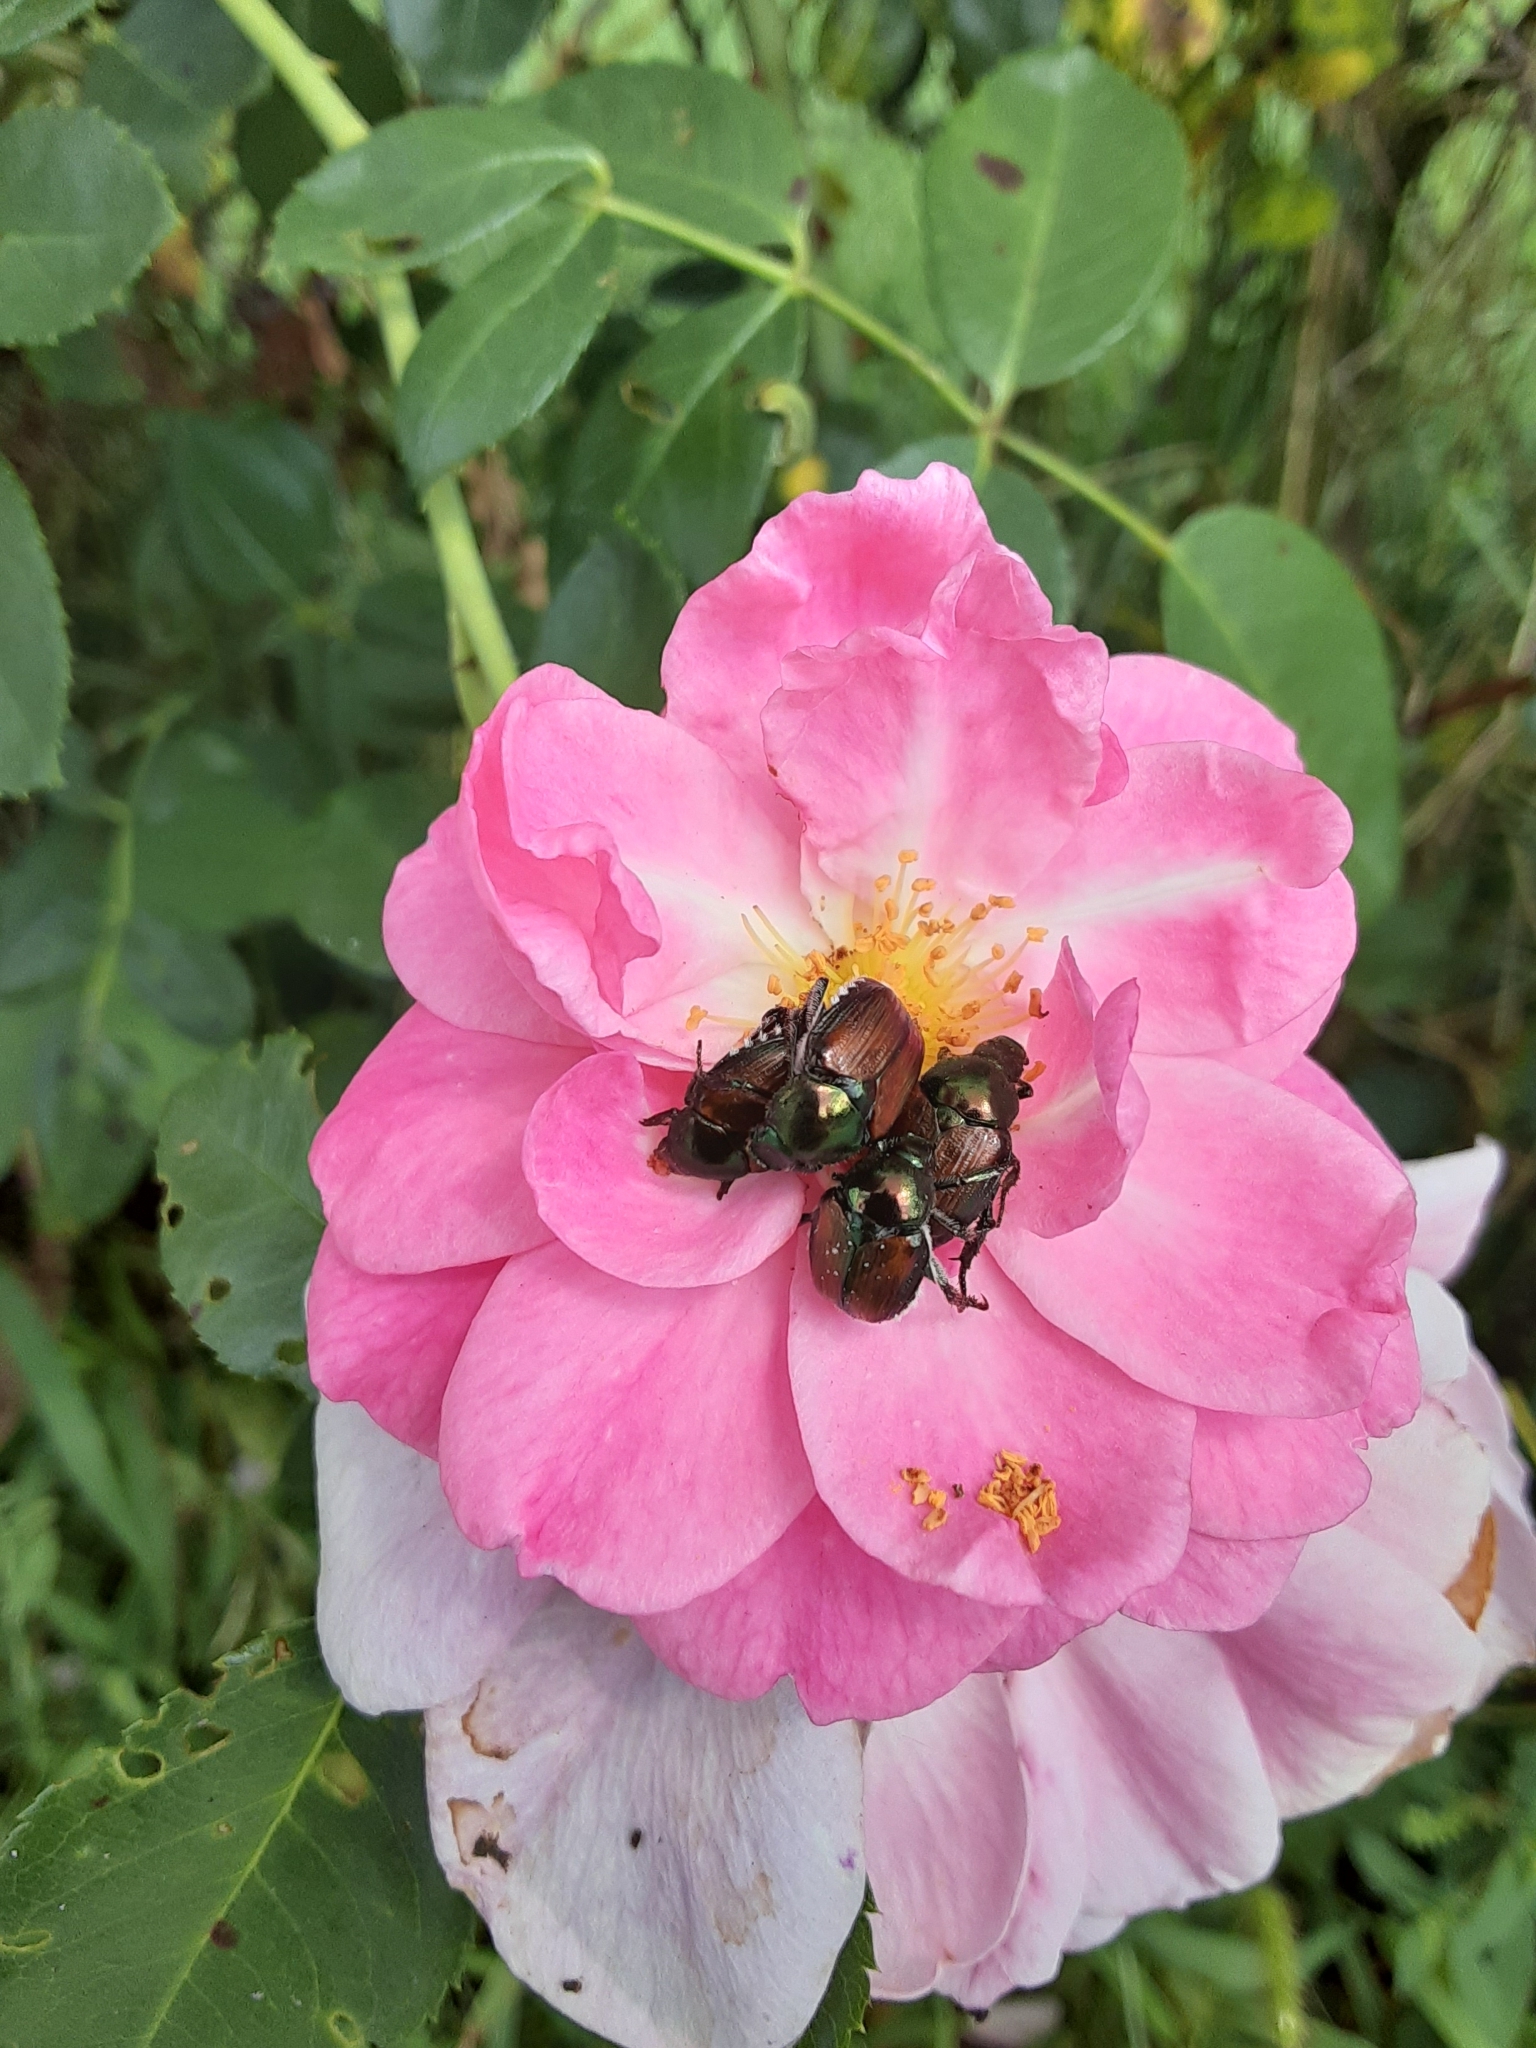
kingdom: Animalia
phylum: Arthropoda
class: Insecta
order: Coleoptera
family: Scarabaeidae
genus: Popillia
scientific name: Popillia japonica
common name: Japanese beetle
